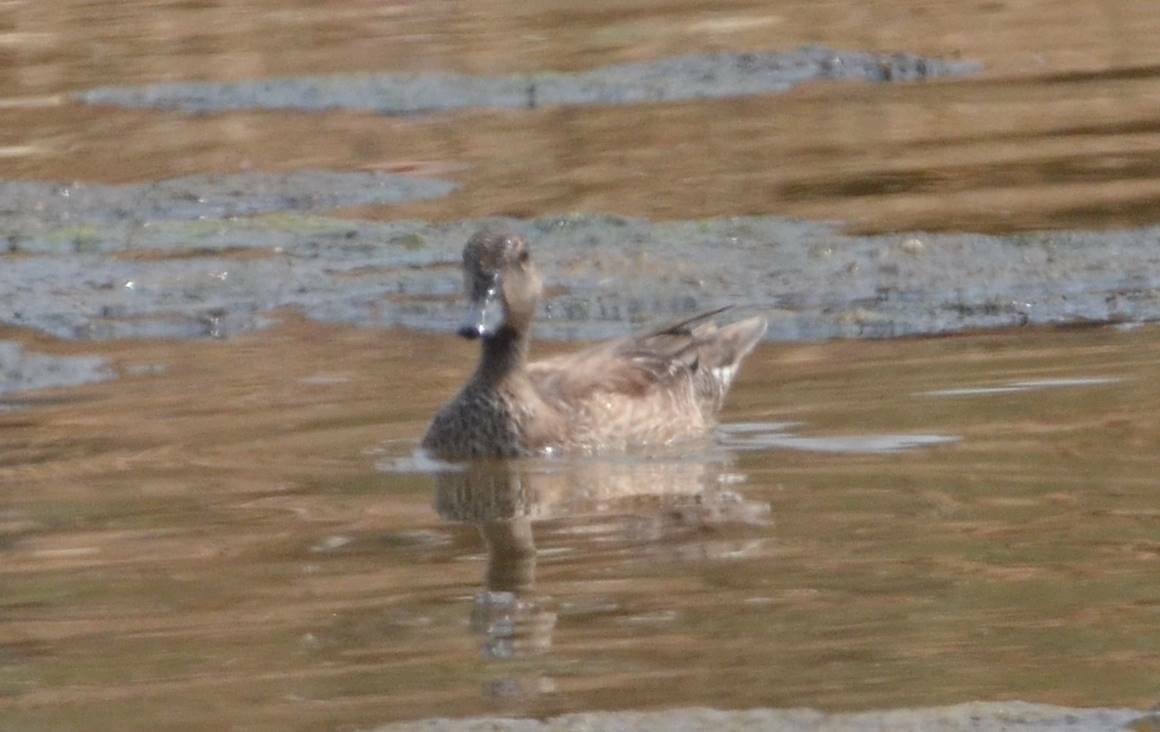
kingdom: Animalia
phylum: Chordata
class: Aves
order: Anseriformes
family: Anatidae
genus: Mareca
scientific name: Mareca strepera
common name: Gadwall
